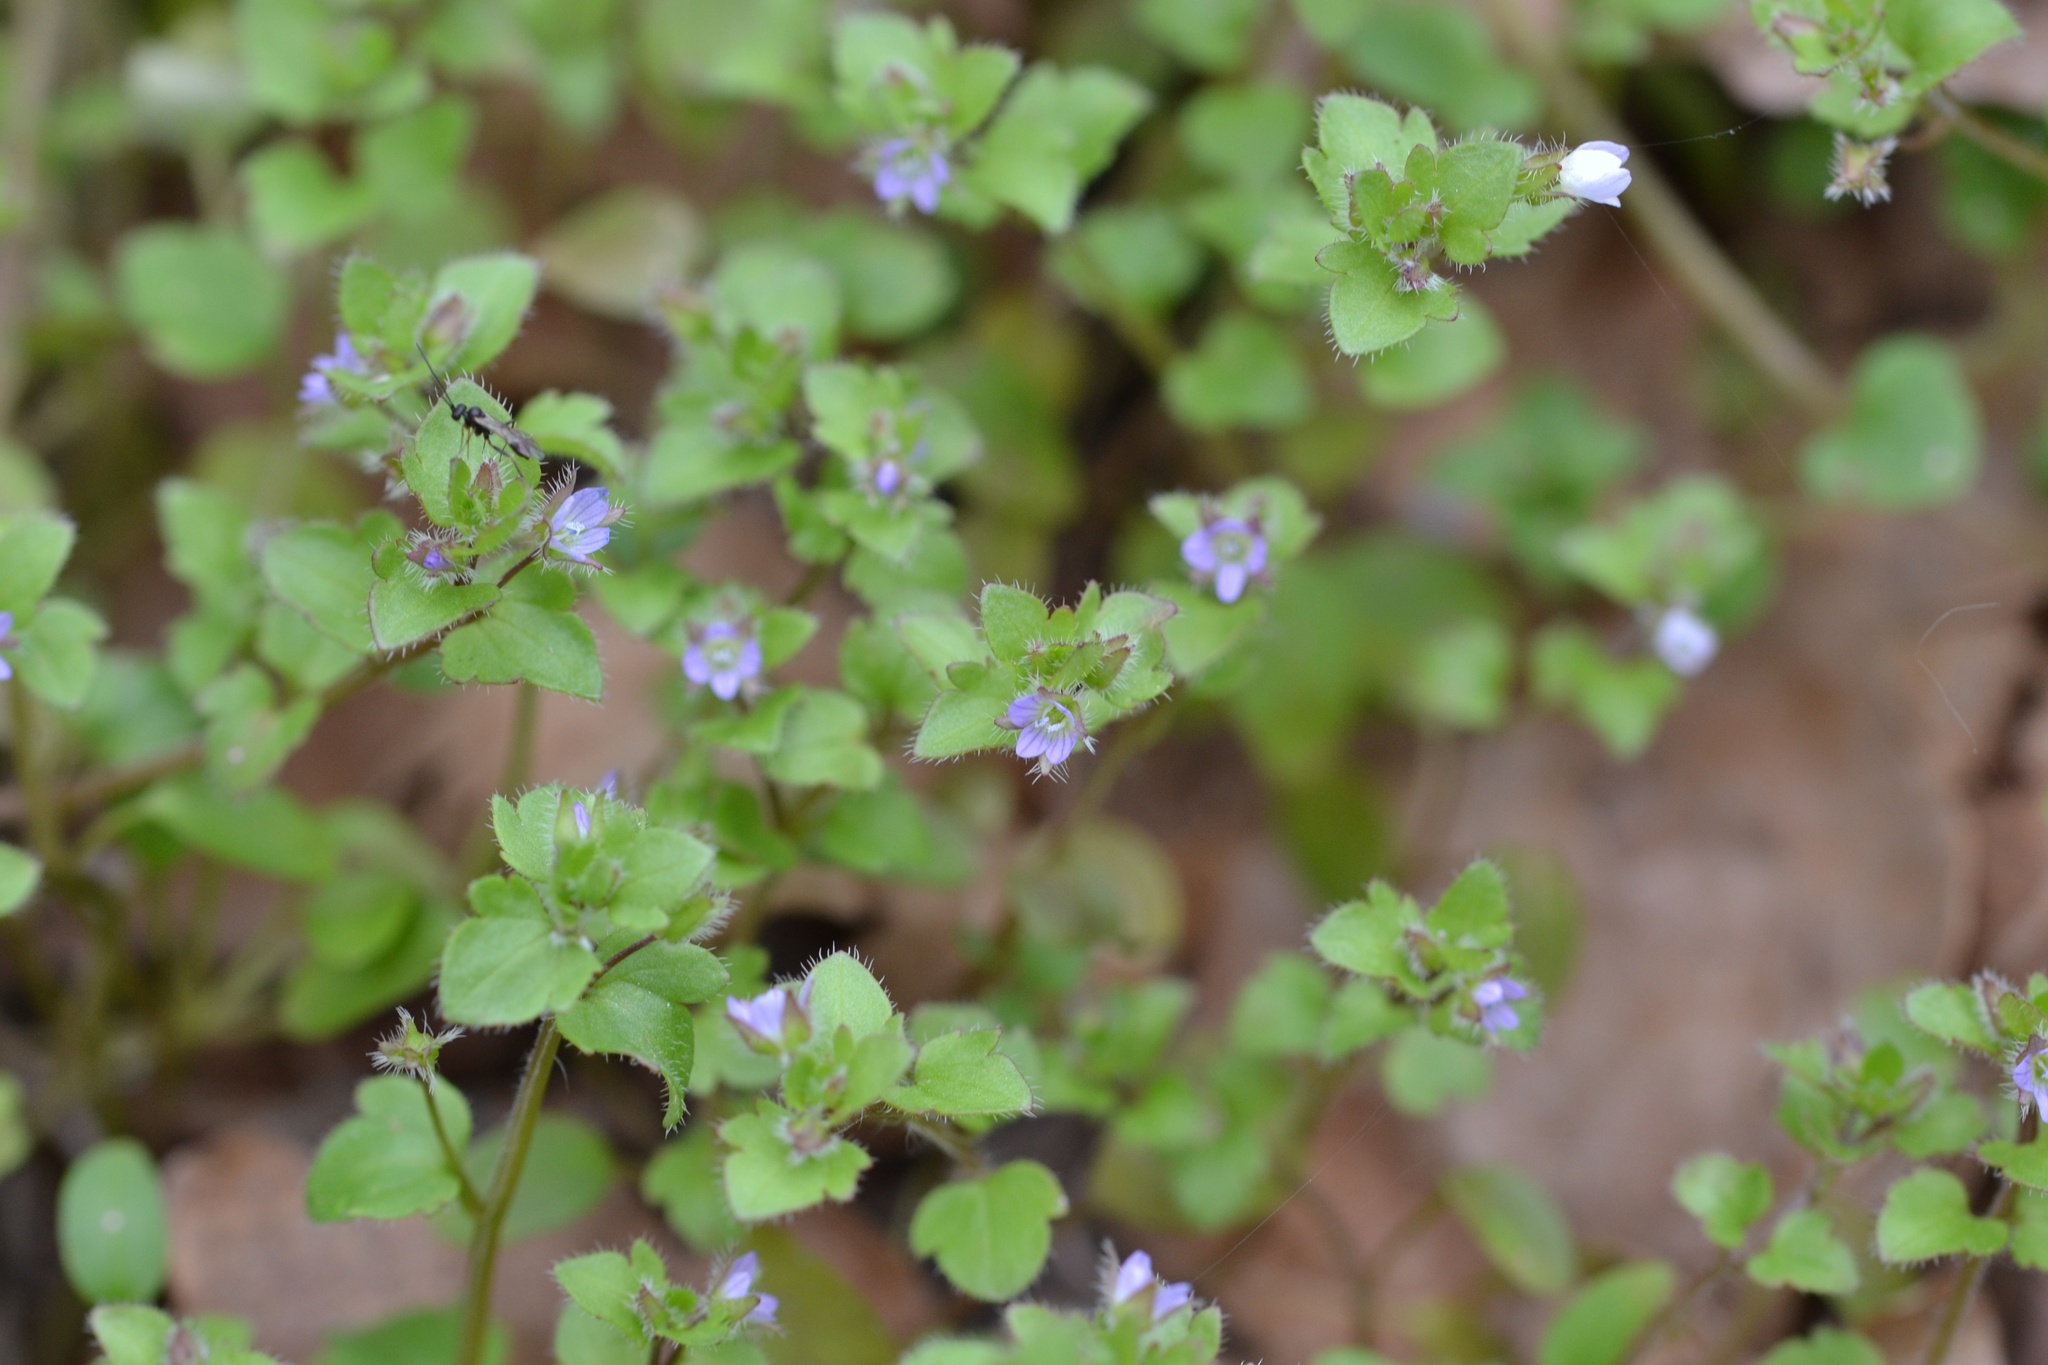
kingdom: Plantae
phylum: Tracheophyta
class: Magnoliopsida
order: Lamiales
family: Plantaginaceae
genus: Veronica
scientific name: Veronica sublobata
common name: False ivy-leaved speedwell
